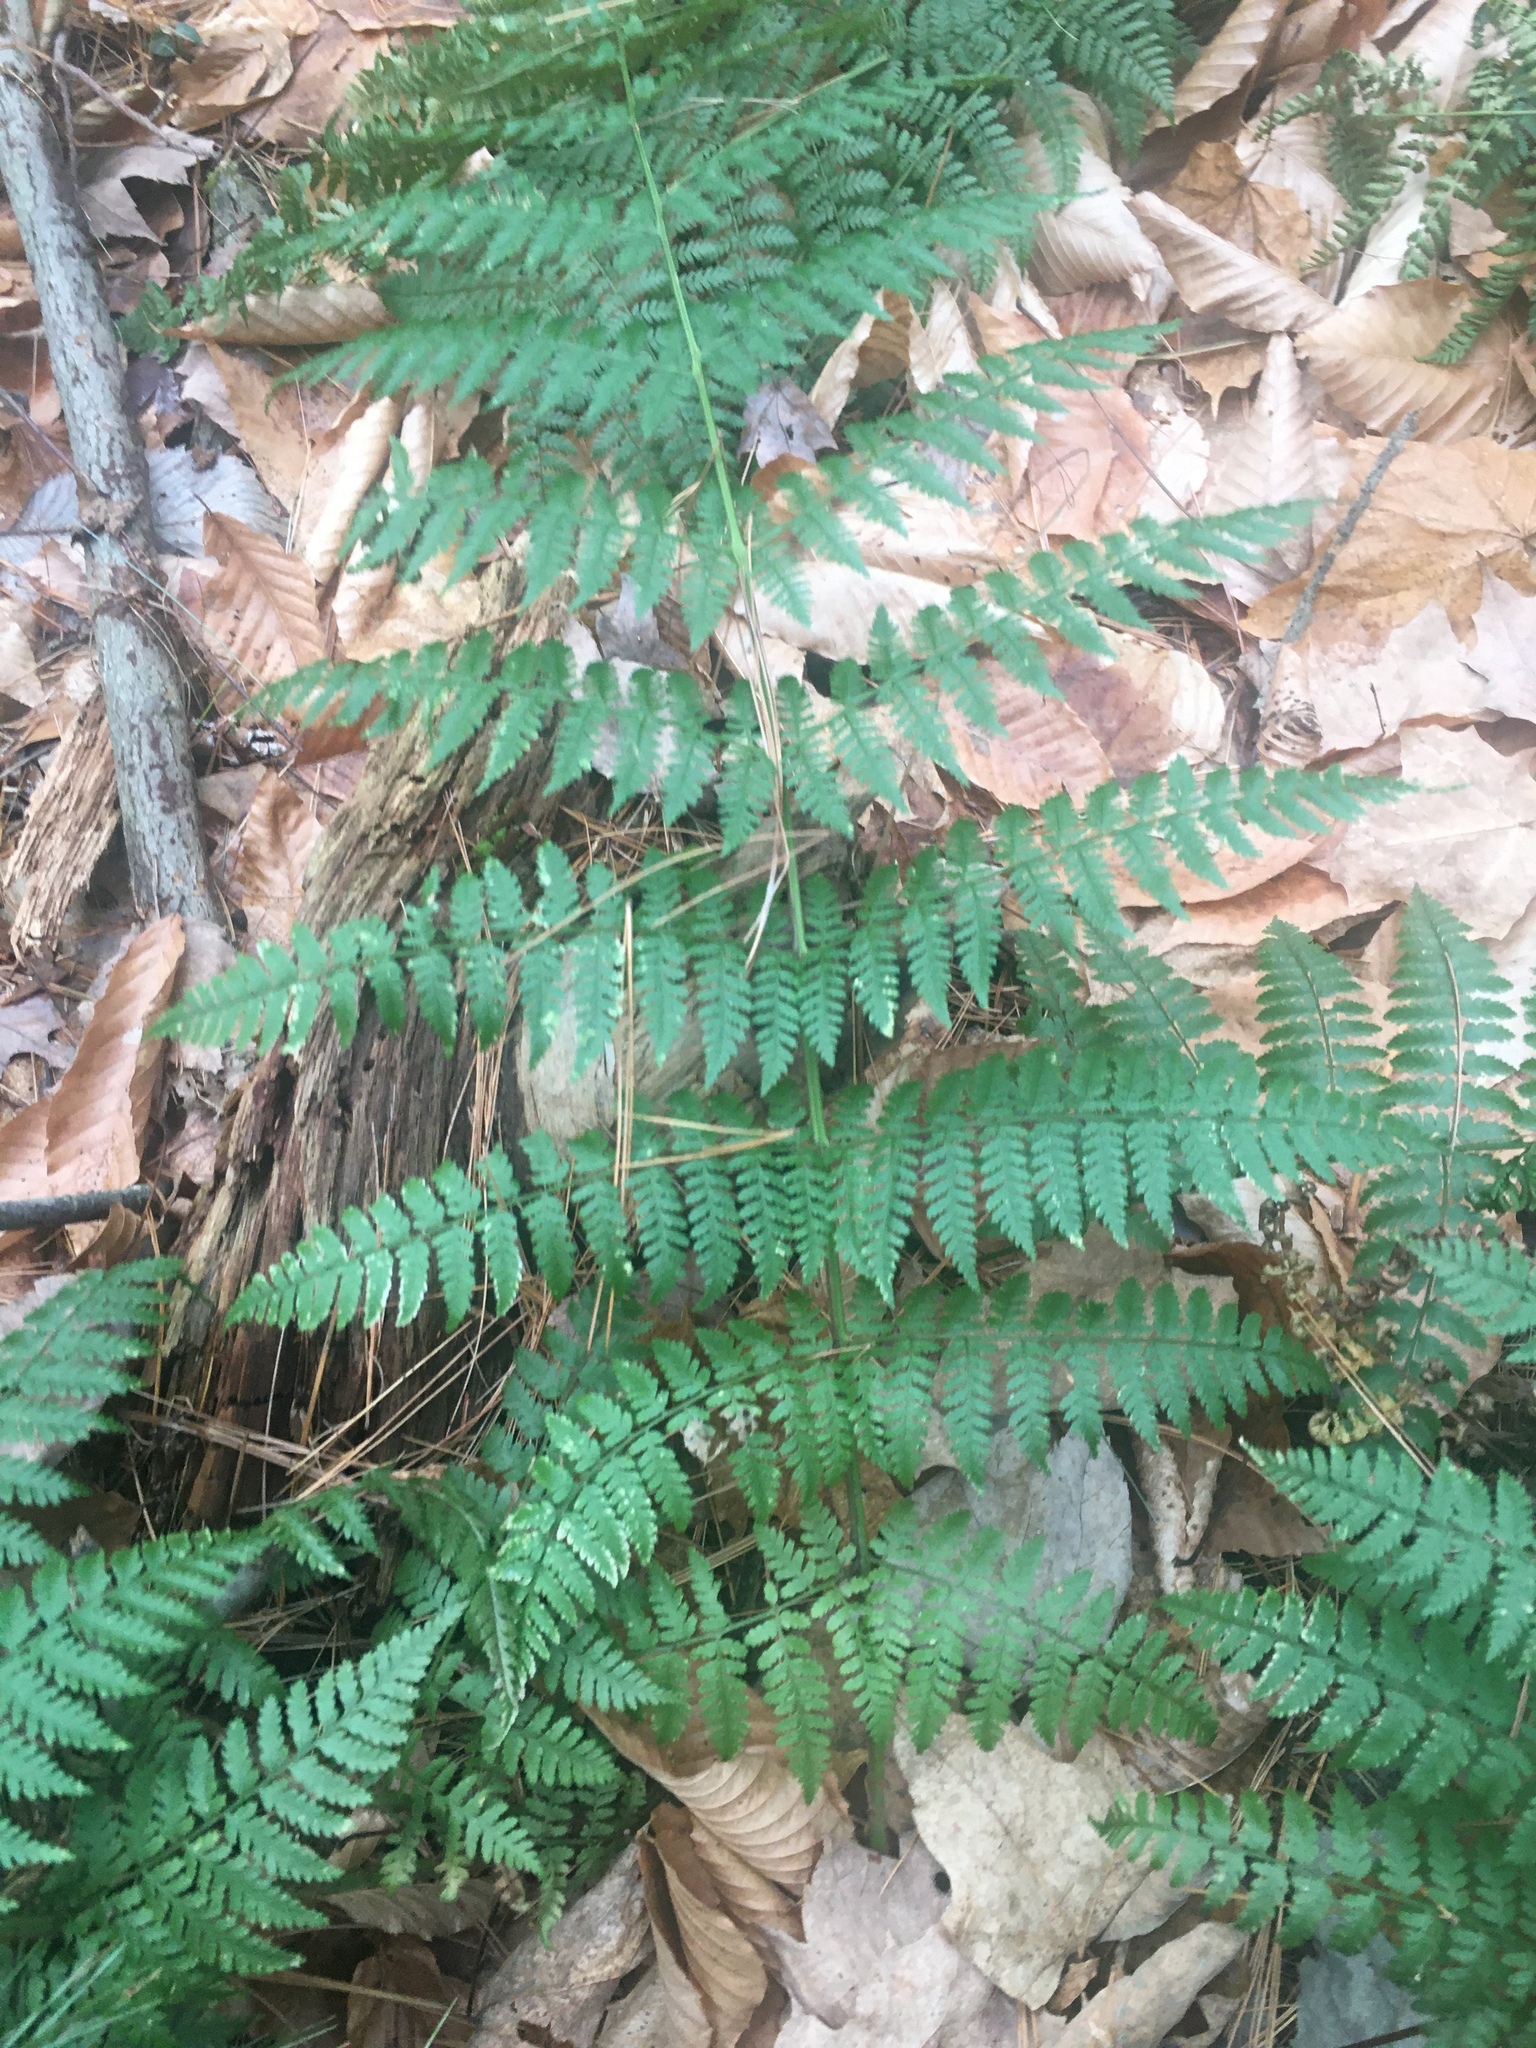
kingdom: Plantae
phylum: Tracheophyta
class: Polypodiopsida
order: Polypodiales
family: Dryopteridaceae
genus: Dryopteris
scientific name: Dryopteris intermedia
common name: Evergreen wood fern
